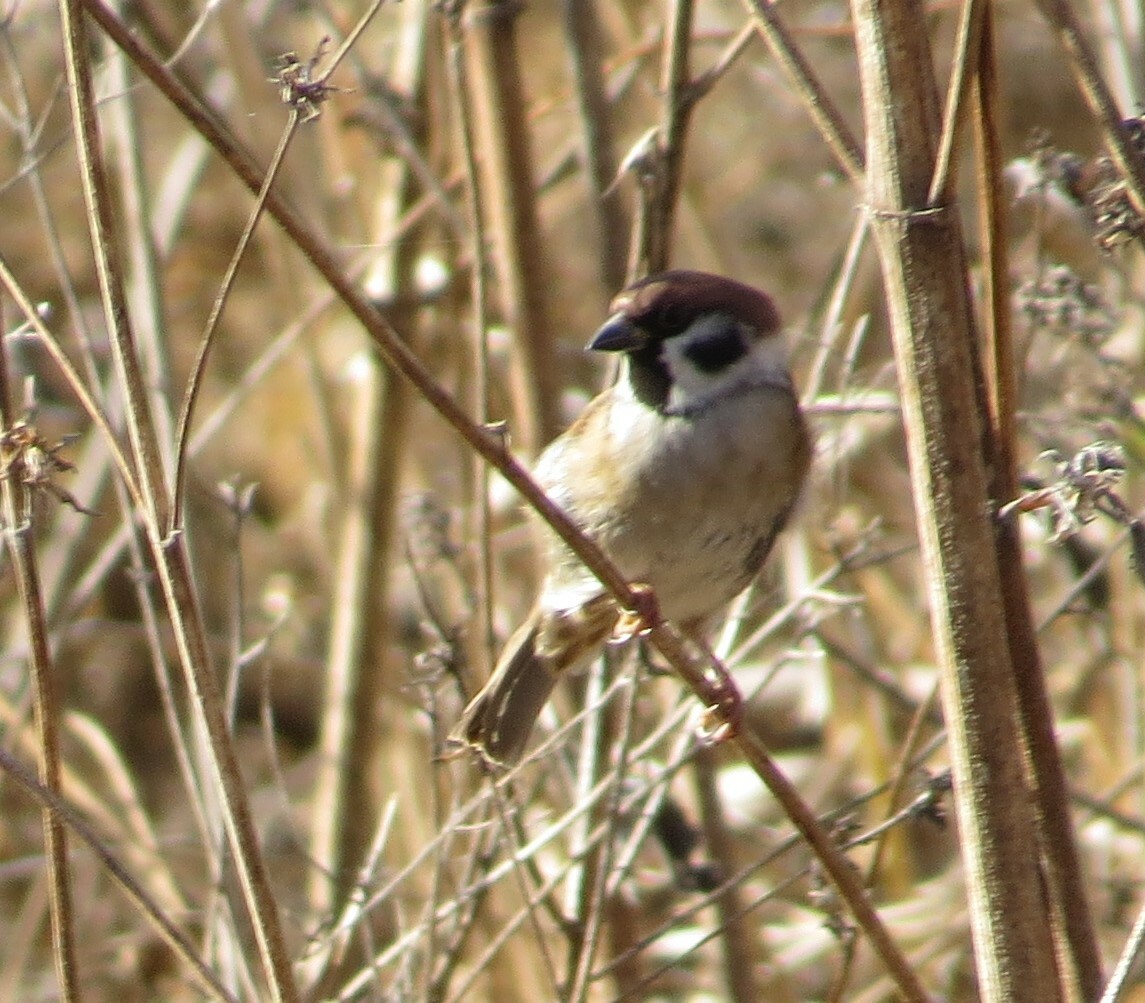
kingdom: Animalia
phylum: Chordata
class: Aves
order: Passeriformes
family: Passeridae
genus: Passer
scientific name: Passer montanus
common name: Eurasian tree sparrow
